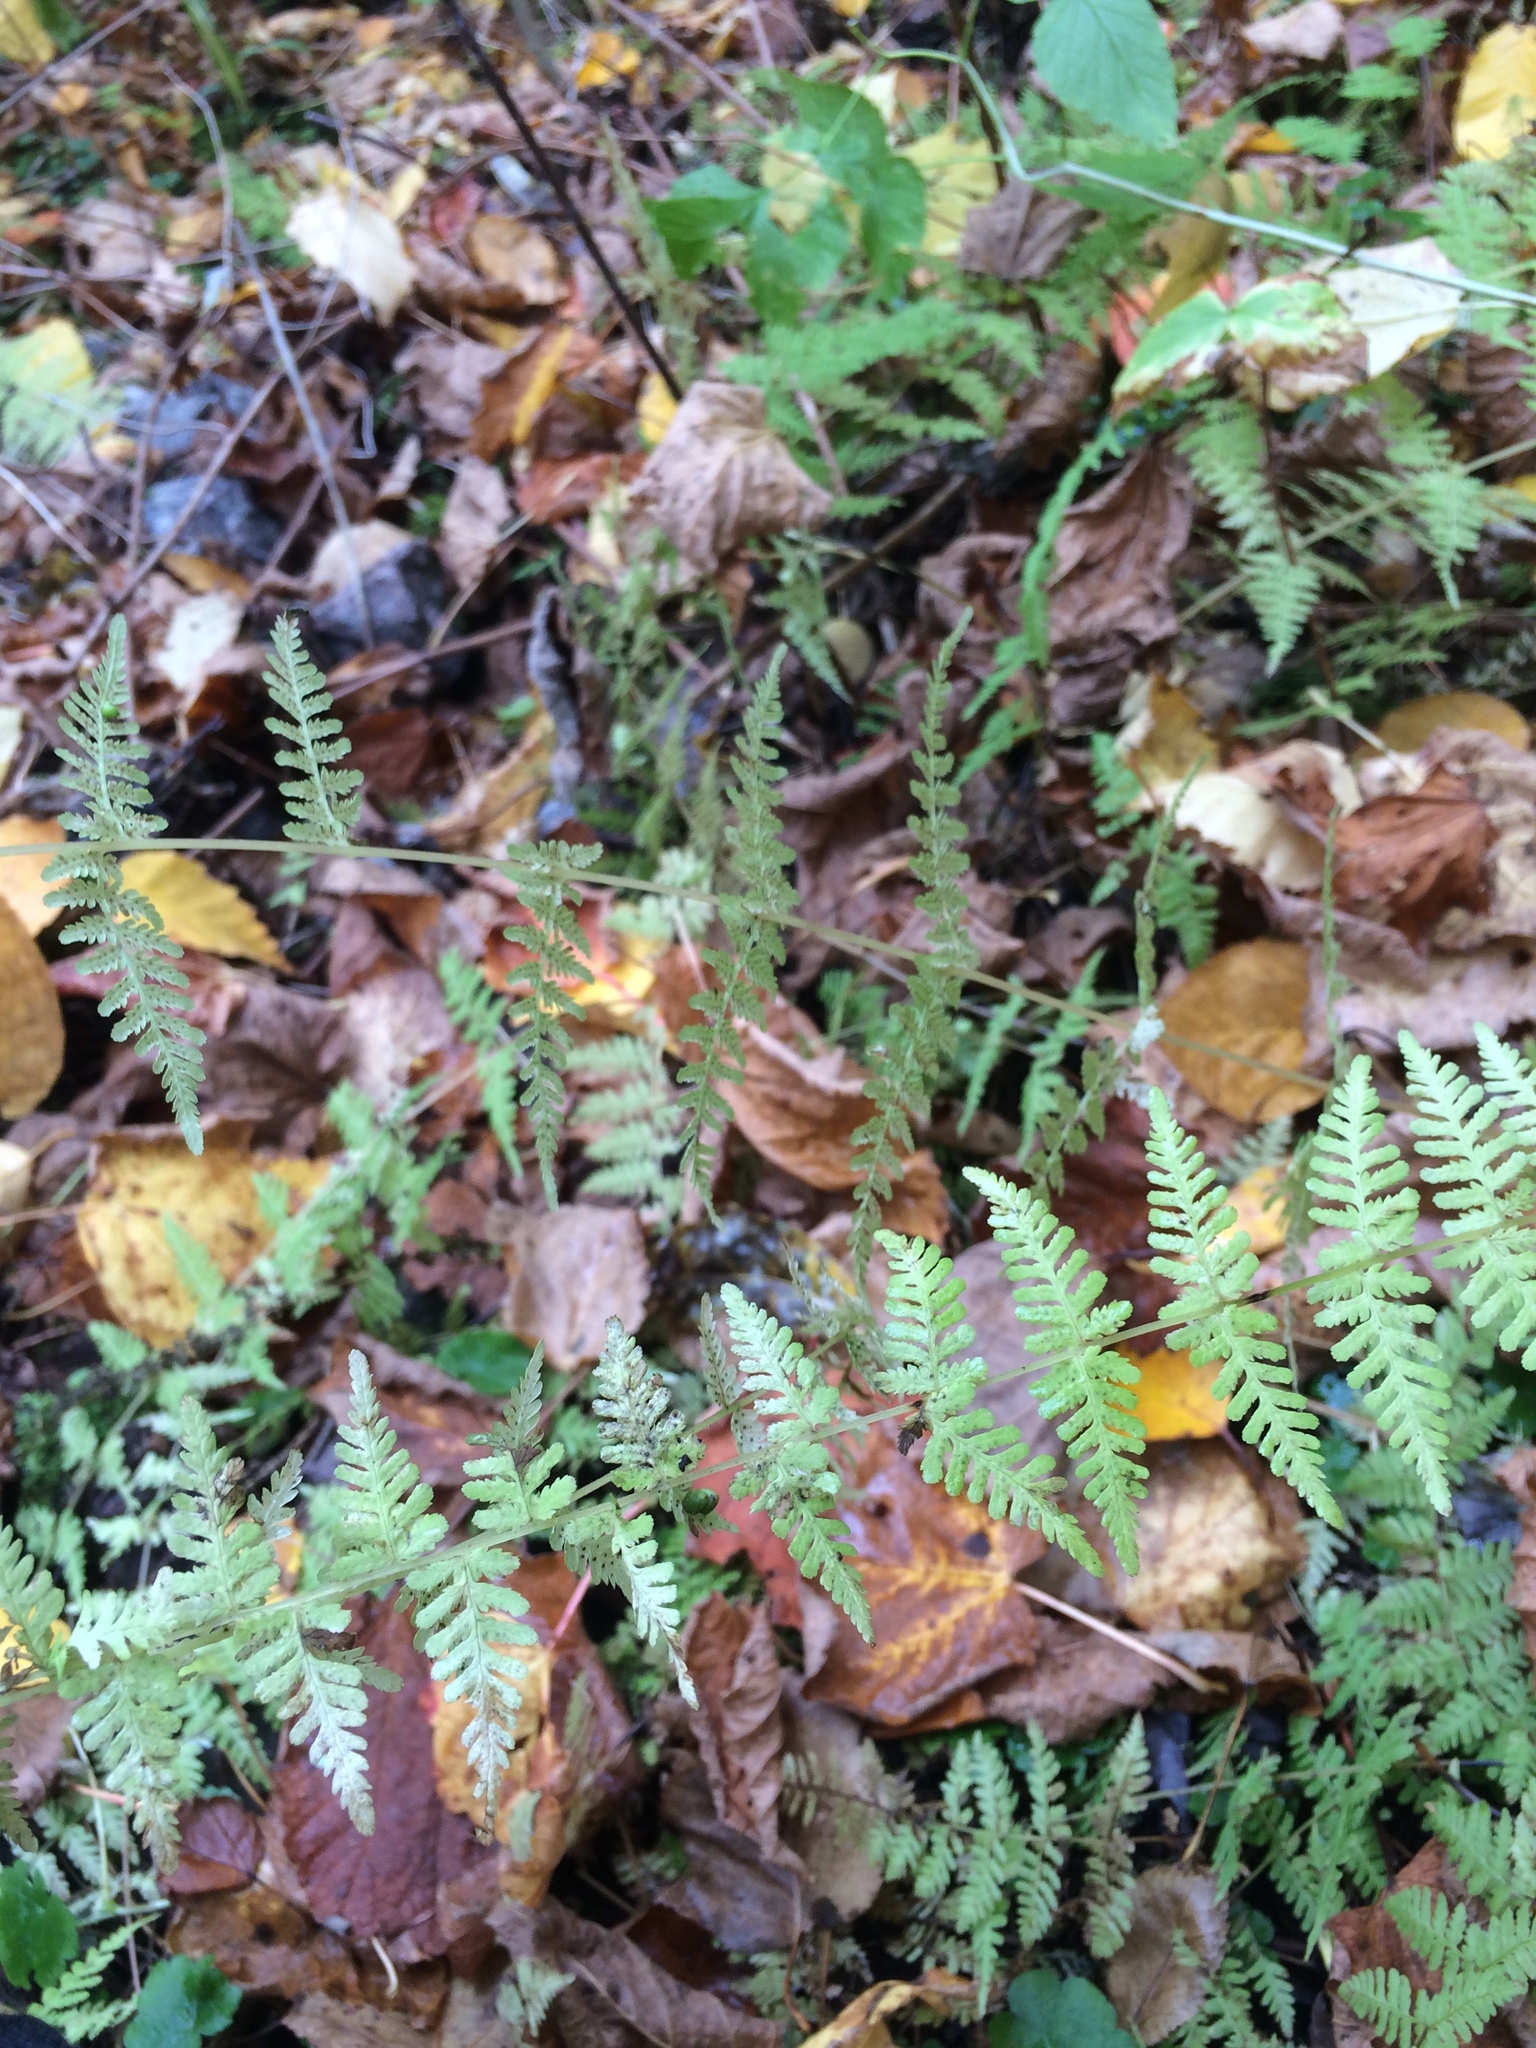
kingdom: Plantae
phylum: Tracheophyta
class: Polypodiopsida
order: Polypodiales
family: Cystopteridaceae
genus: Cystopteris
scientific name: Cystopteris bulbifera
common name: Bulblet bladder fern
